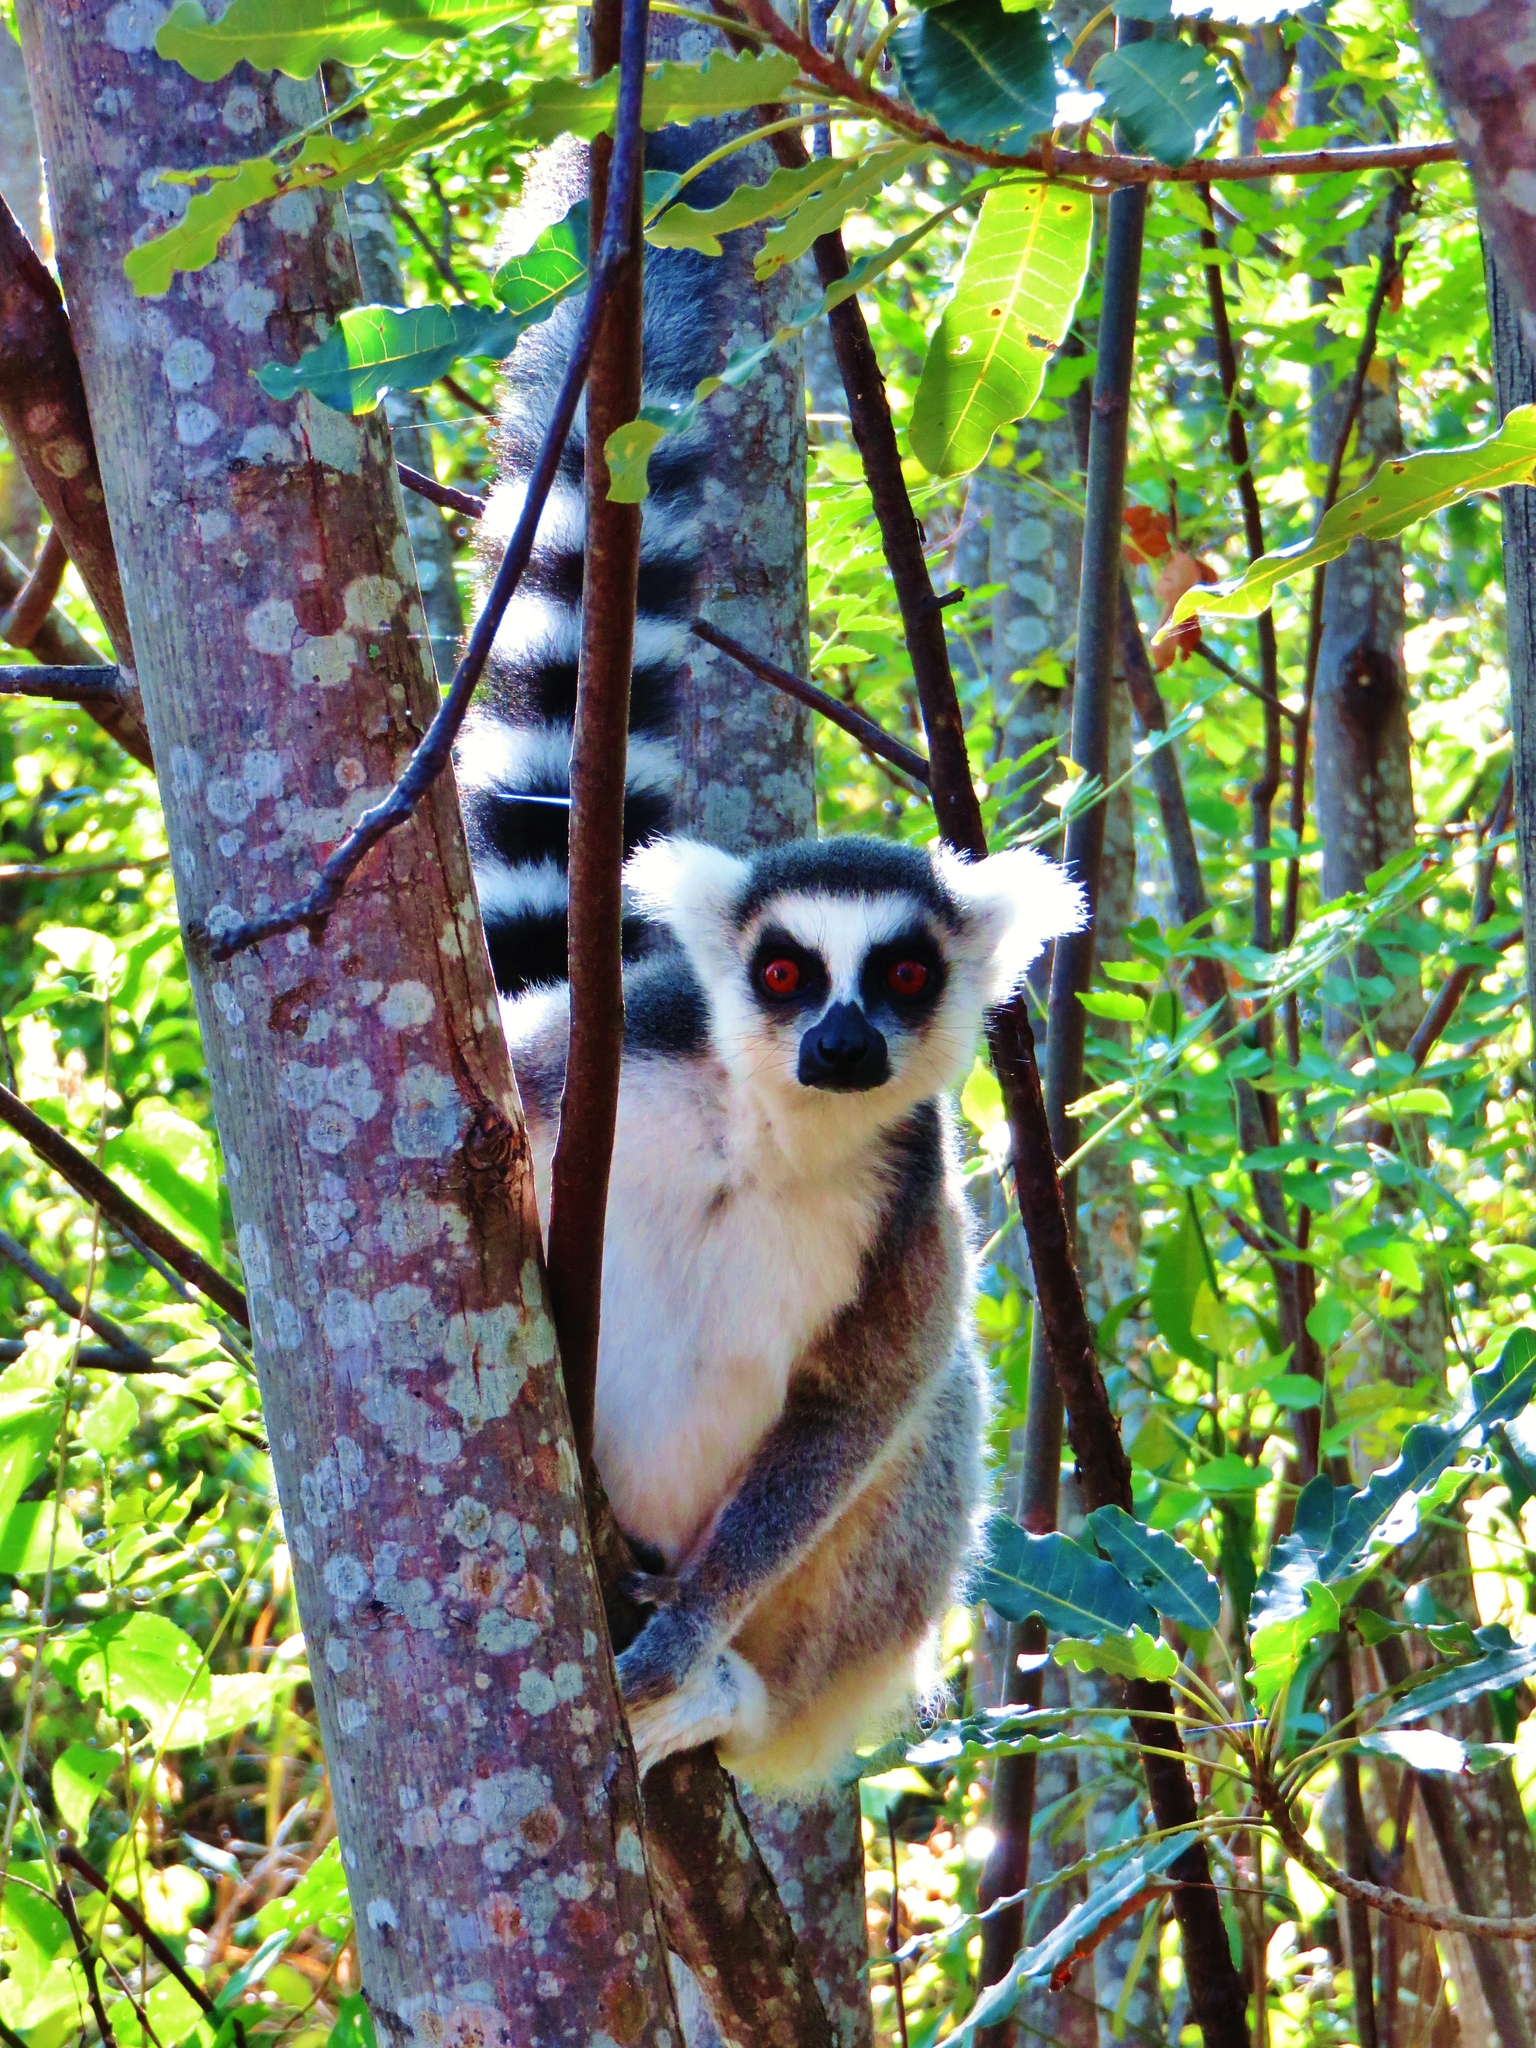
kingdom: Animalia
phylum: Chordata
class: Mammalia
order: Primates
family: Lemuridae
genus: Lemur
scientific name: Lemur catta
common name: Ring-tailed lemur
